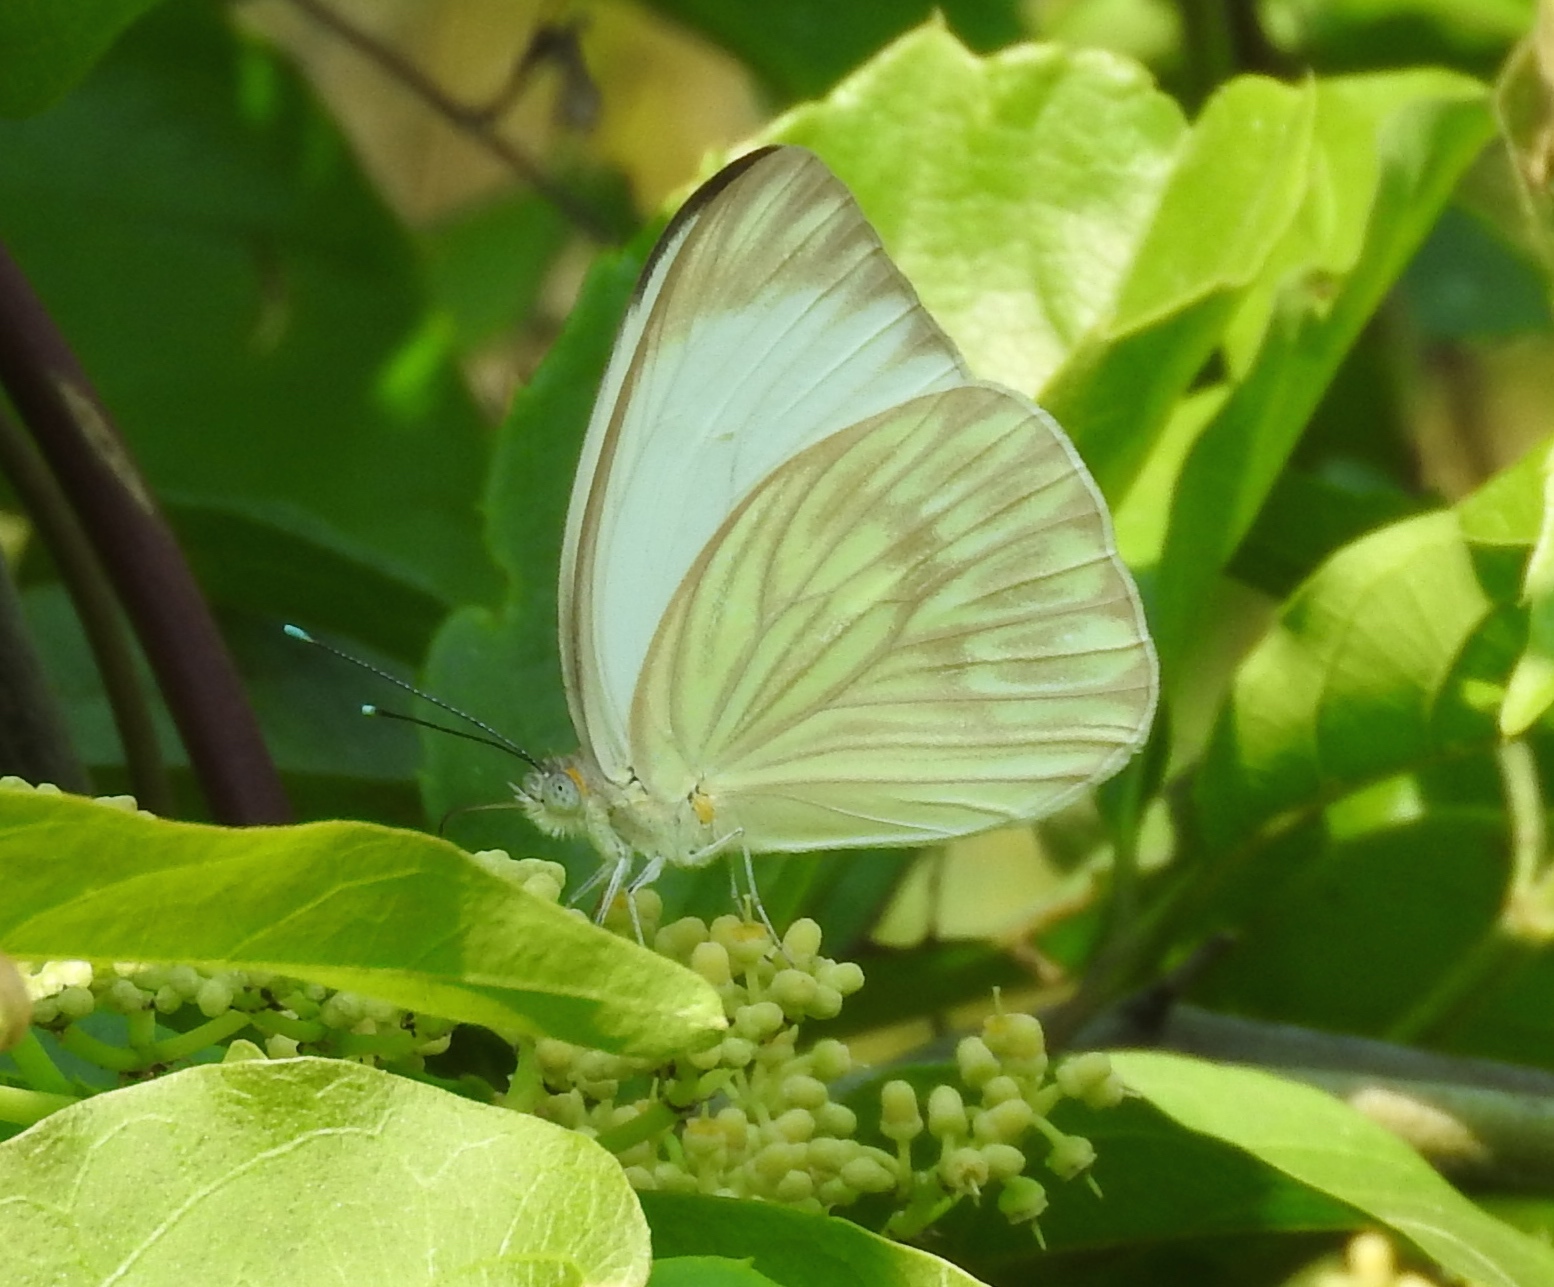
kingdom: Animalia
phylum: Arthropoda
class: Insecta
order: Lepidoptera
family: Pieridae
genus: Ascia
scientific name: Ascia monuste
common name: Great southern white
